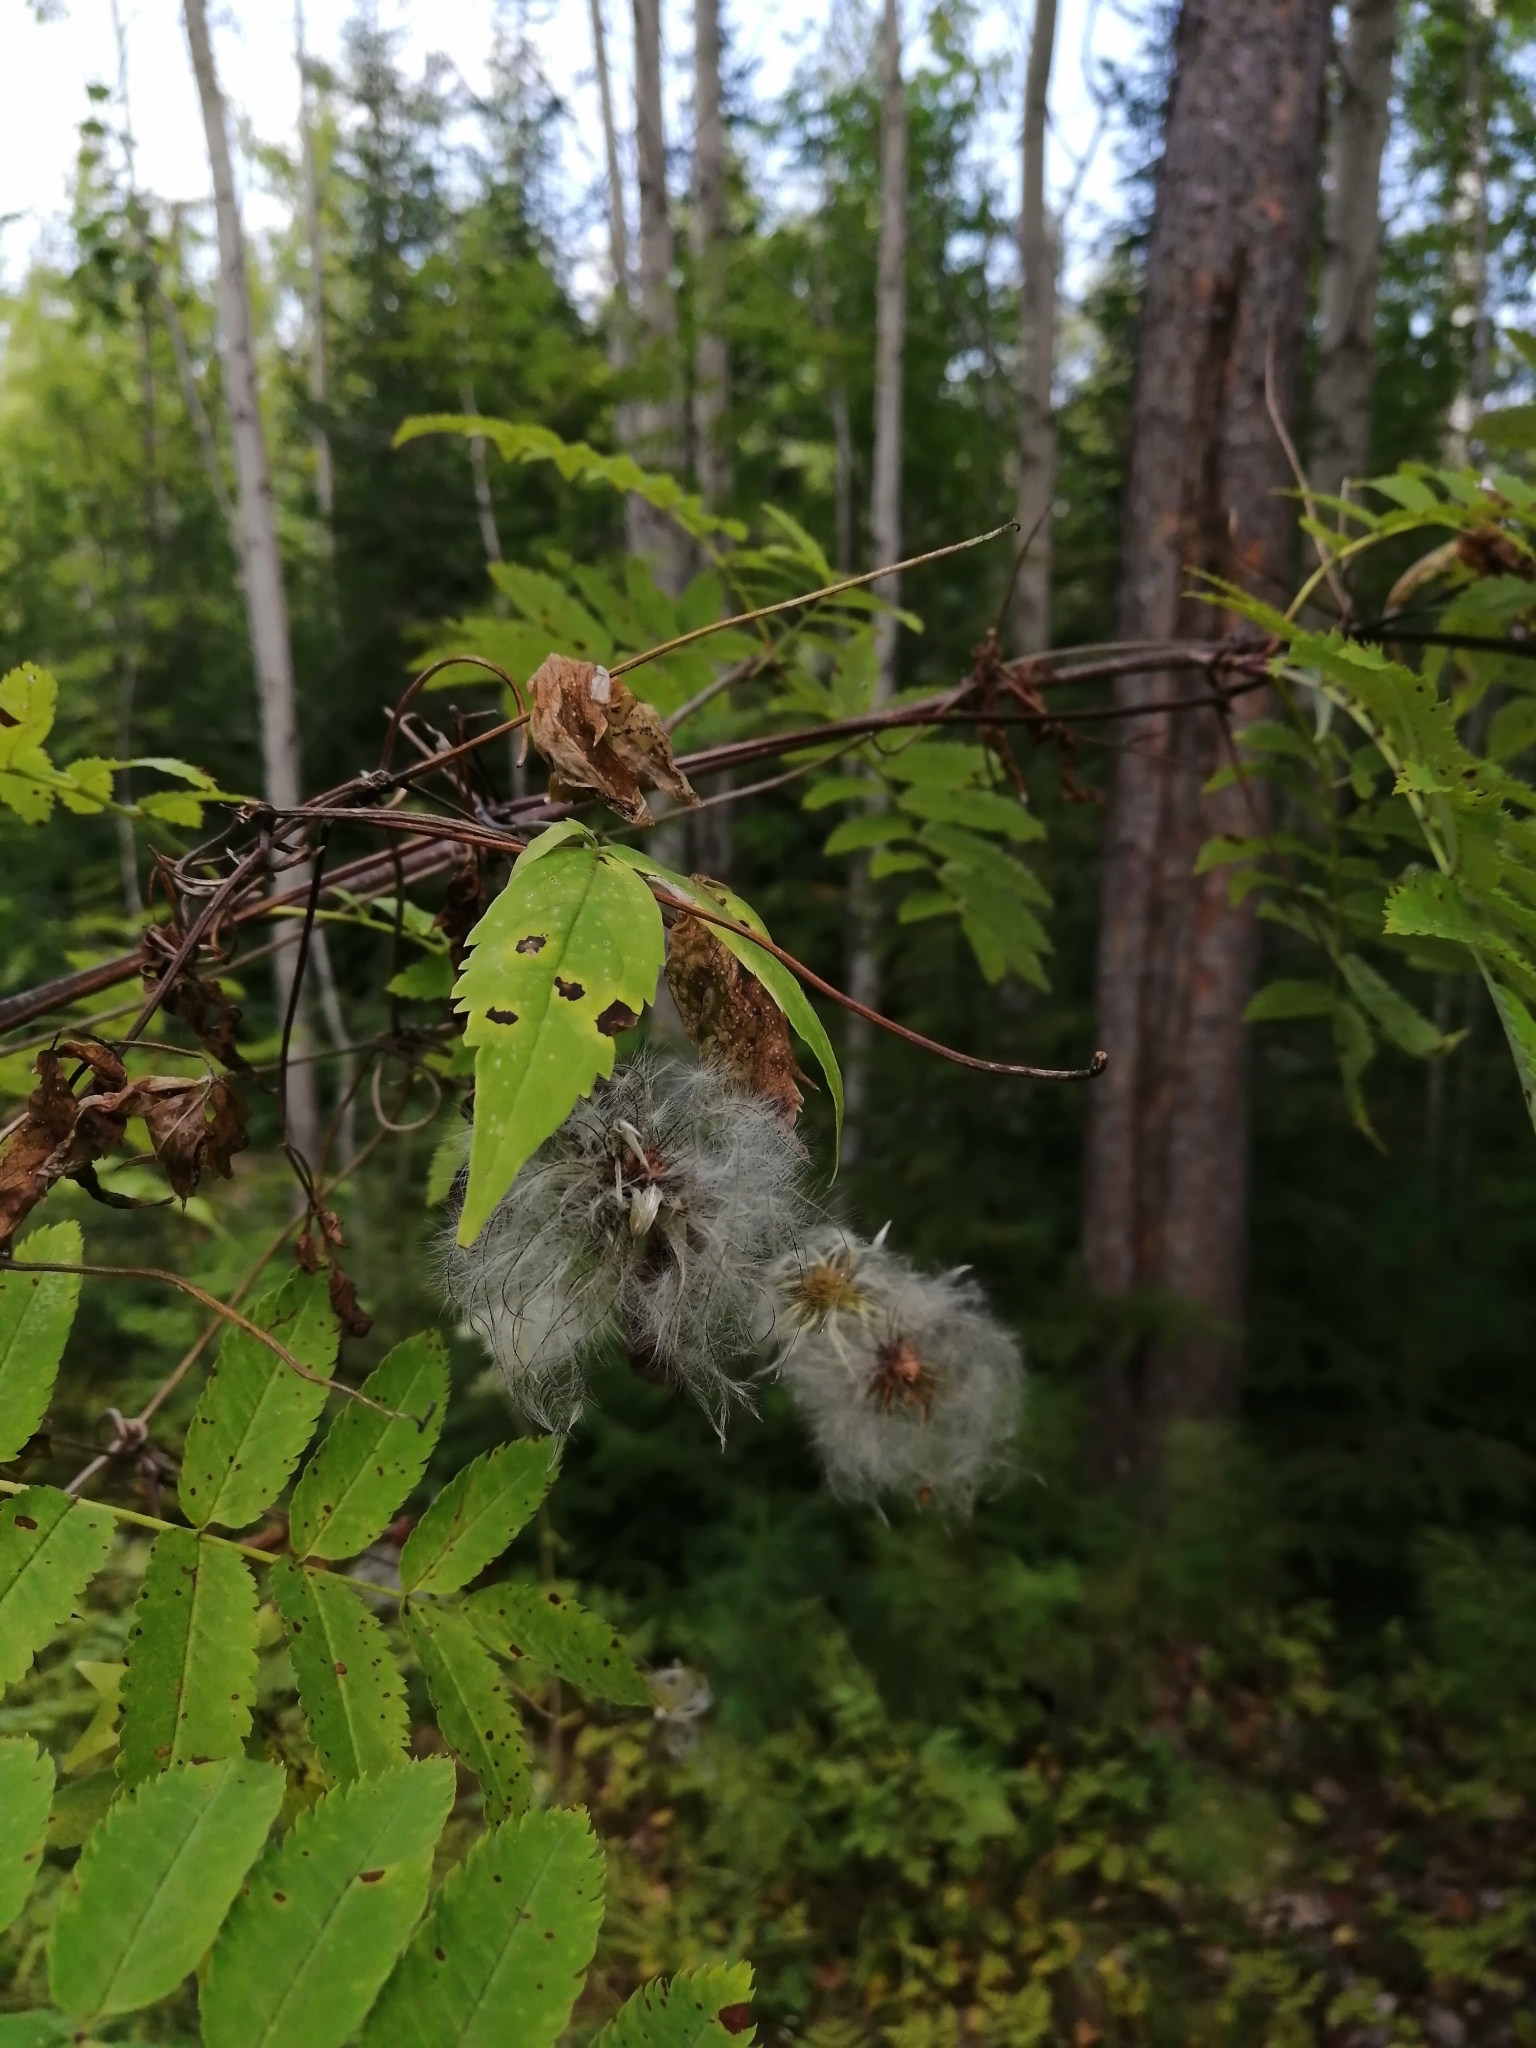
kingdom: Plantae
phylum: Tracheophyta
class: Magnoliopsida
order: Ranunculales
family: Ranunculaceae
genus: Clematis
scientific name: Clematis sibirica
